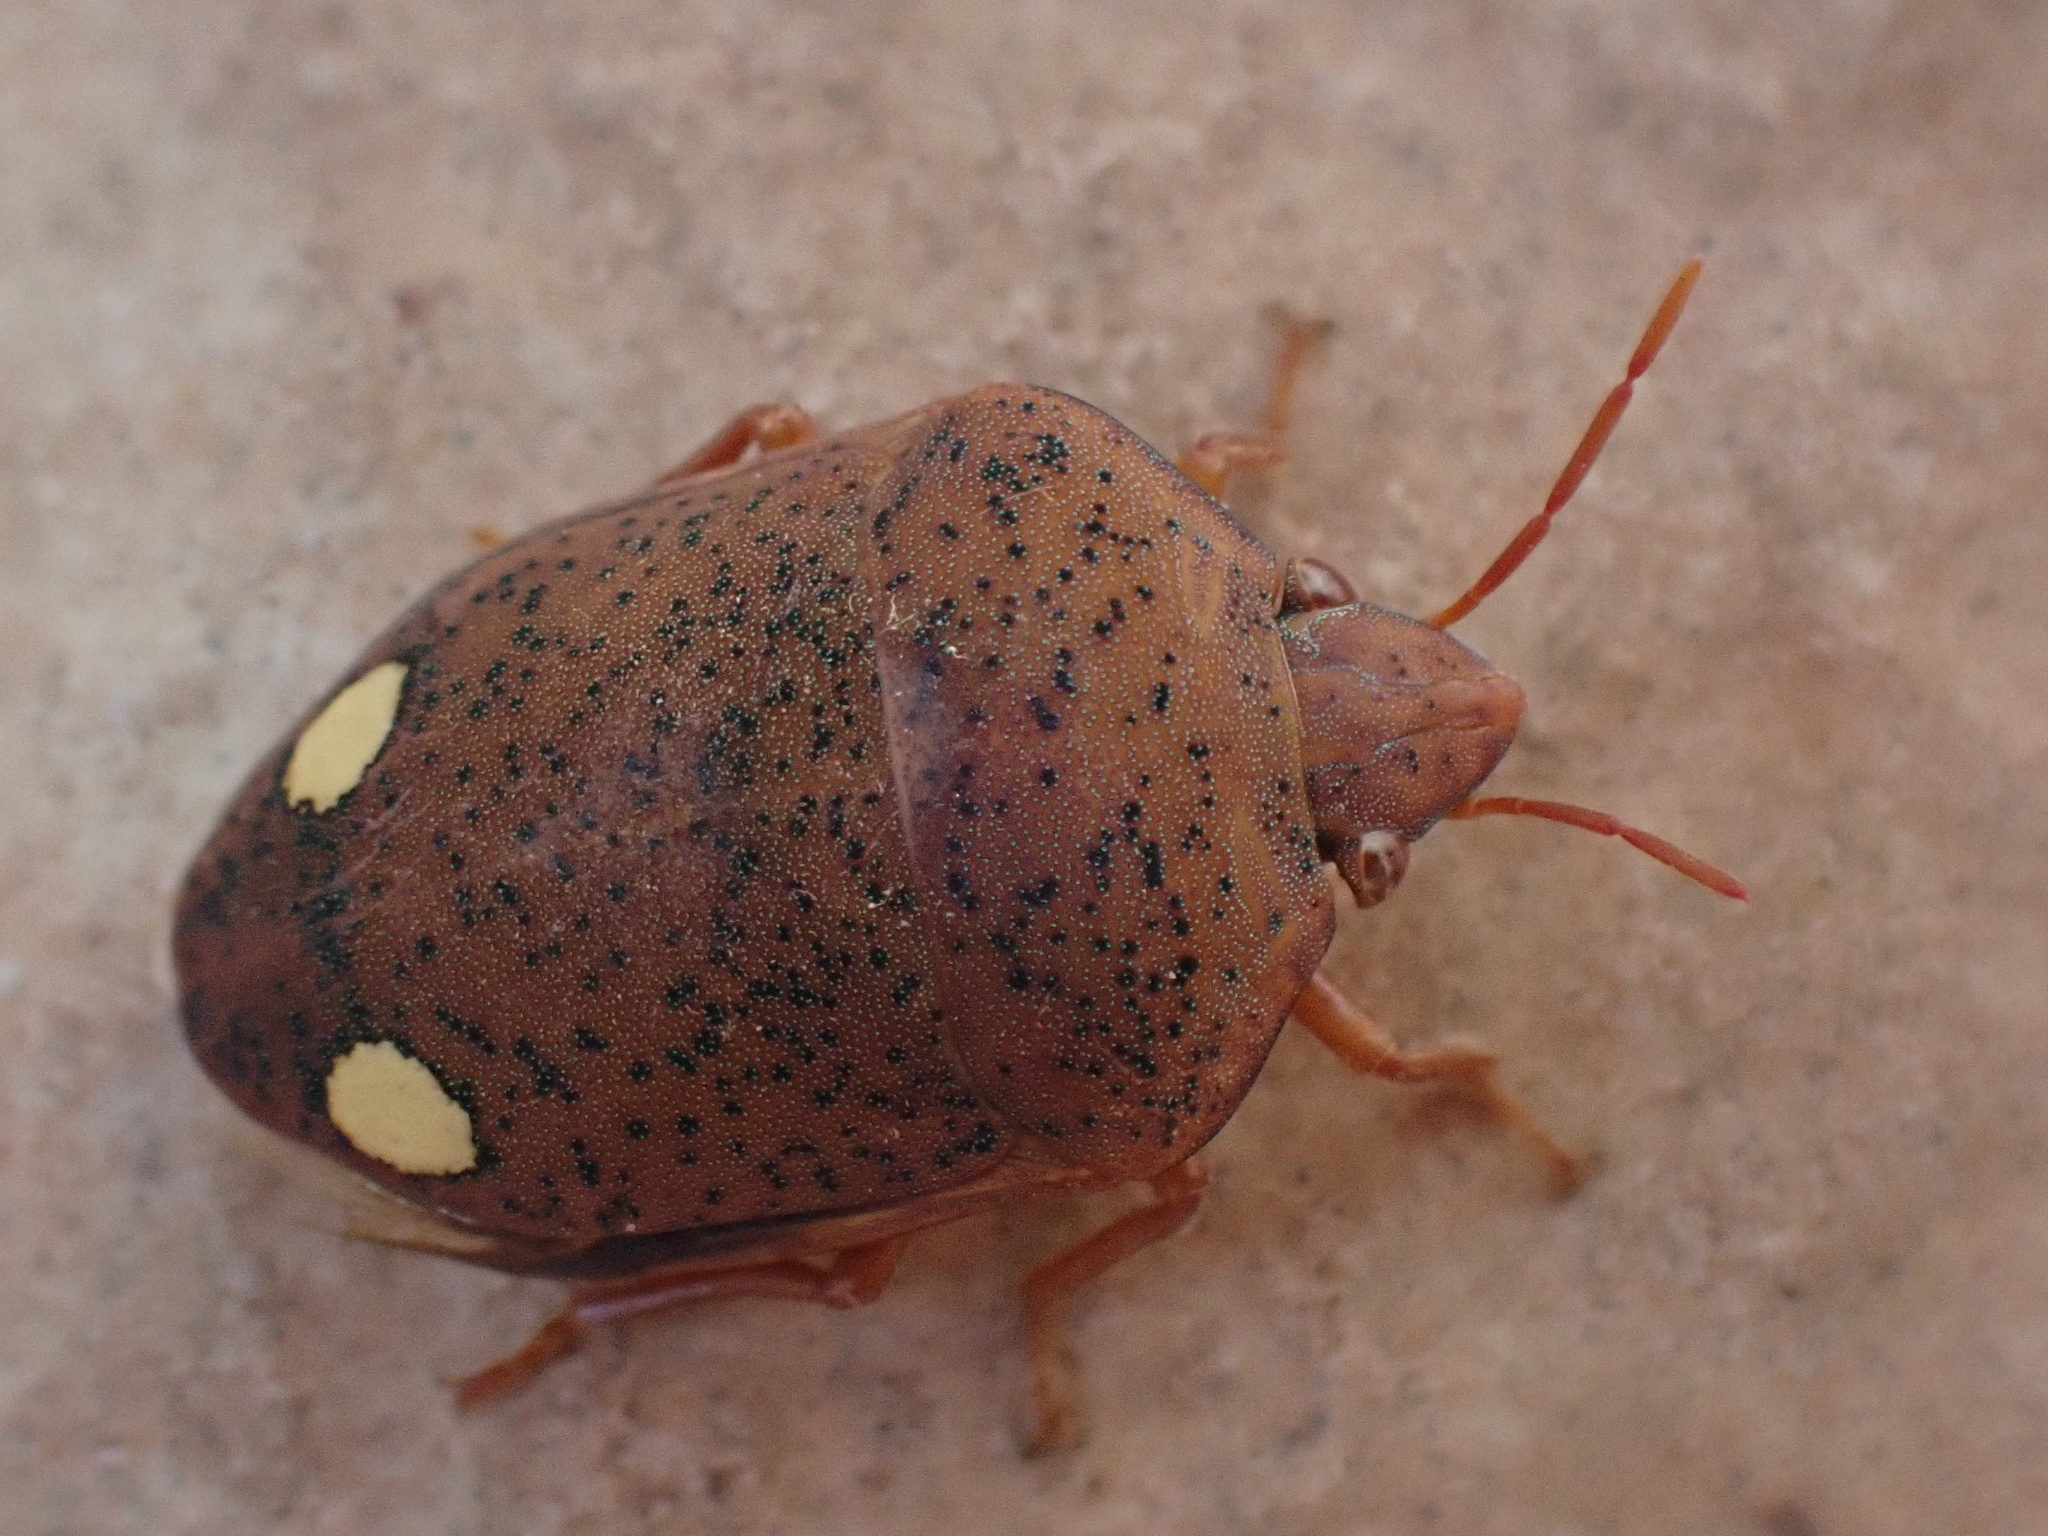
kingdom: Animalia
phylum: Arthropoda
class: Insecta
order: Hemiptera
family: Scutelleridae
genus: Solenosthedium
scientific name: Solenosthedium bilunatum
